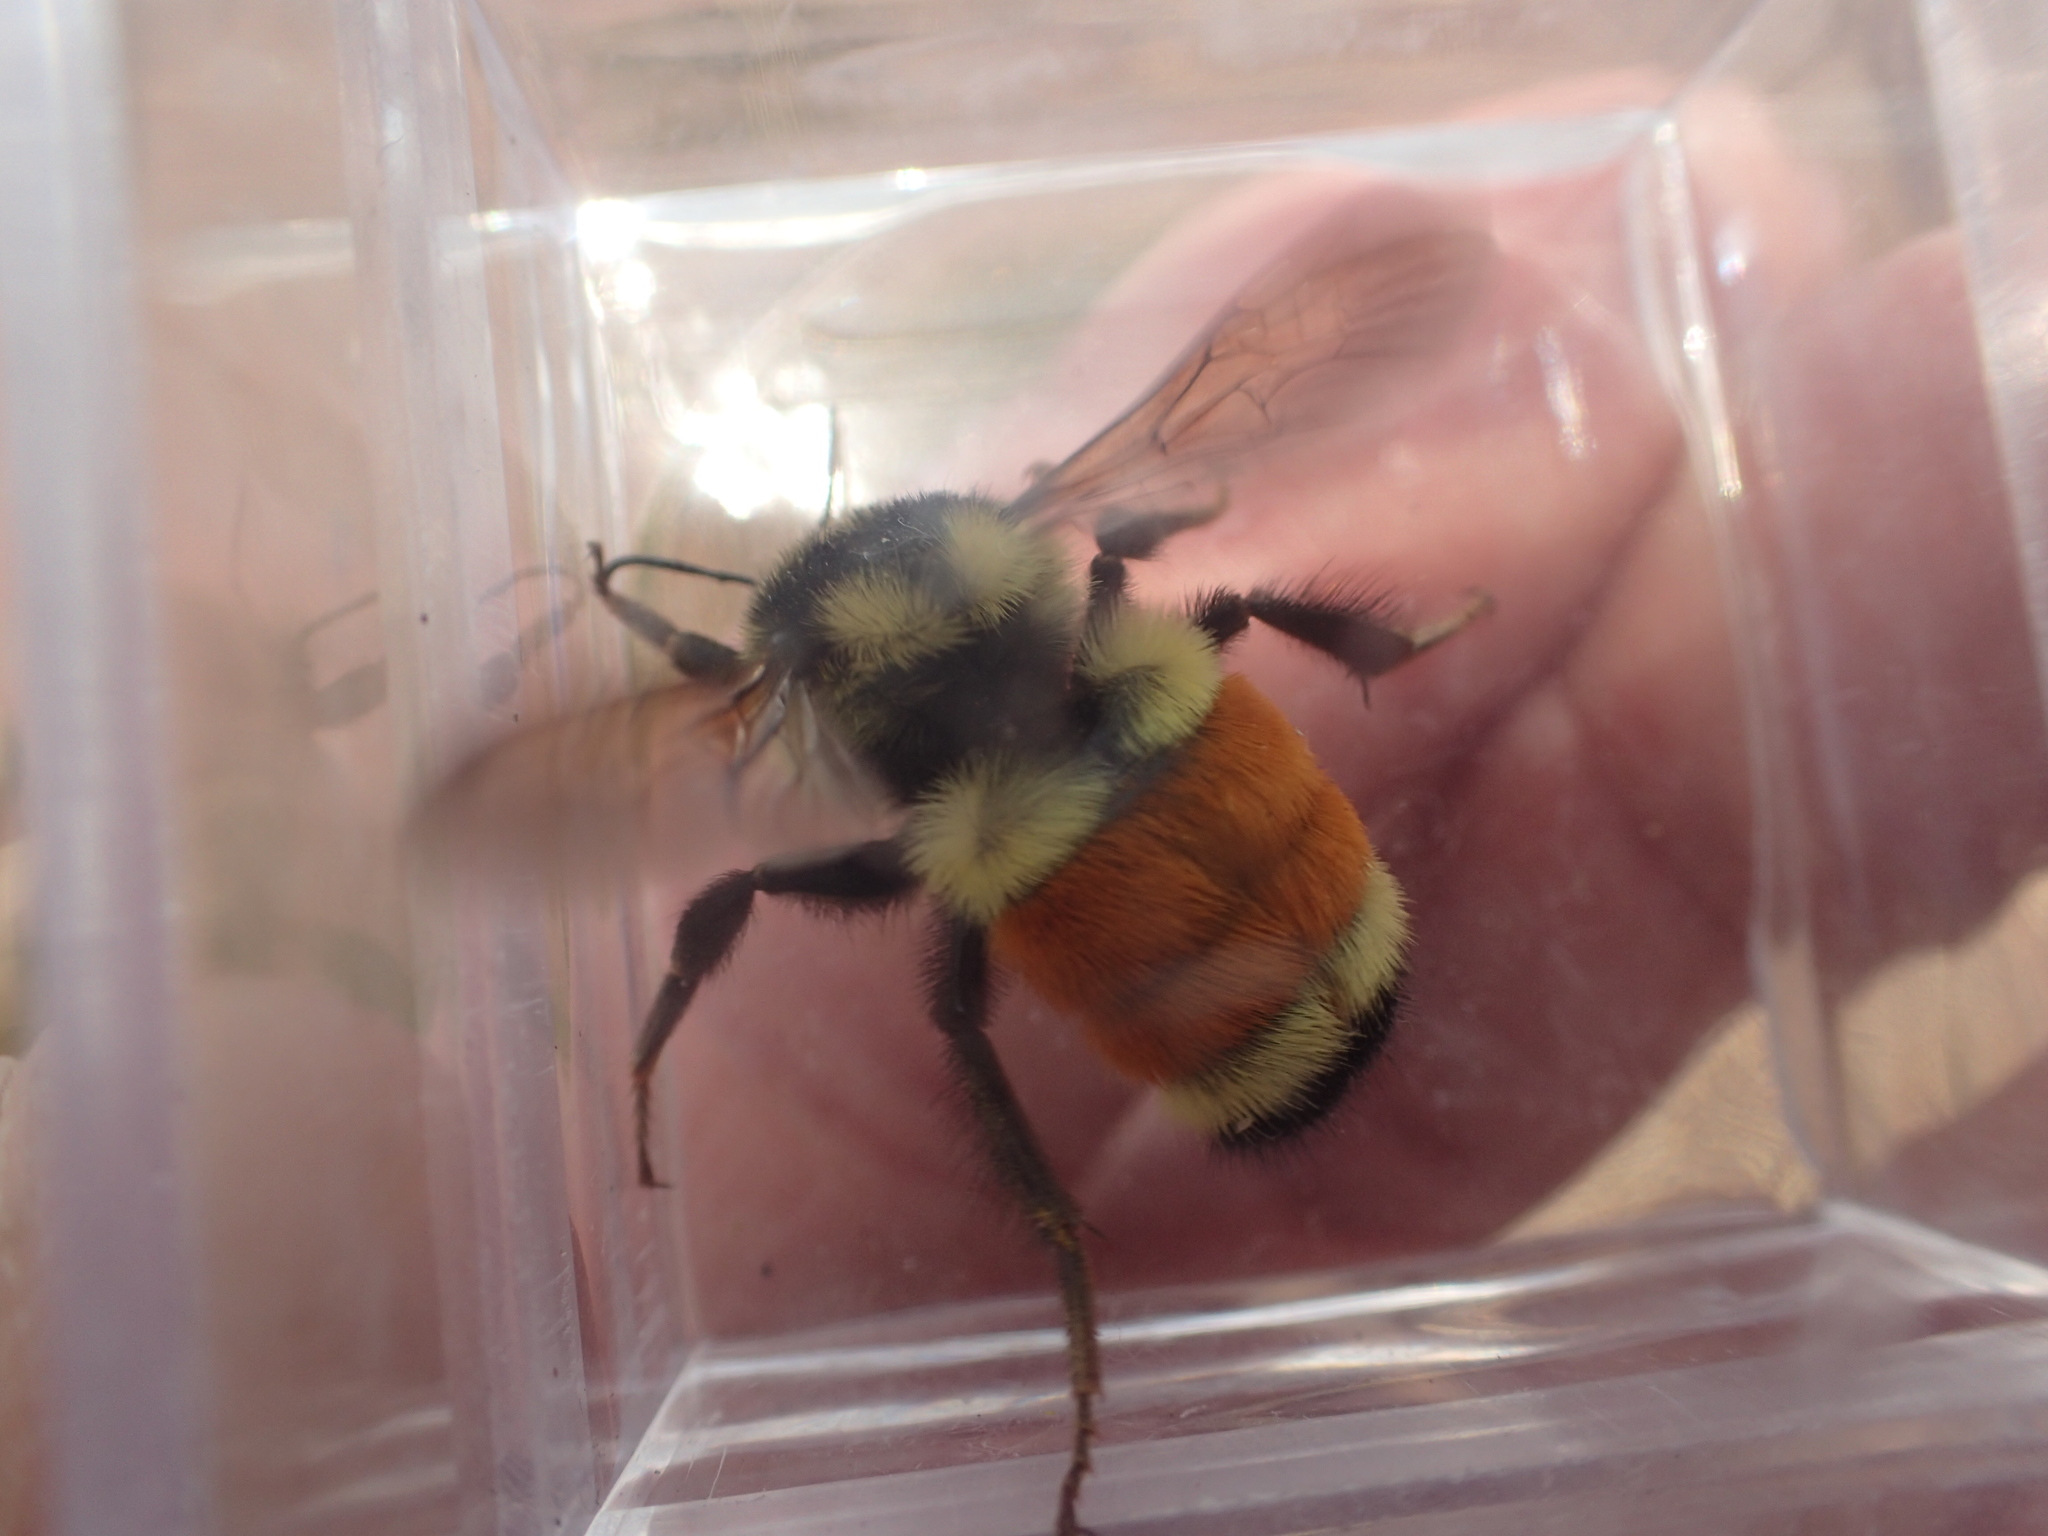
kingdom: Animalia
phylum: Arthropoda
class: Insecta
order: Hymenoptera
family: Apidae
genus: Bombus
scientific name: Bombus ternarius
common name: Tri-colored bumble bee
